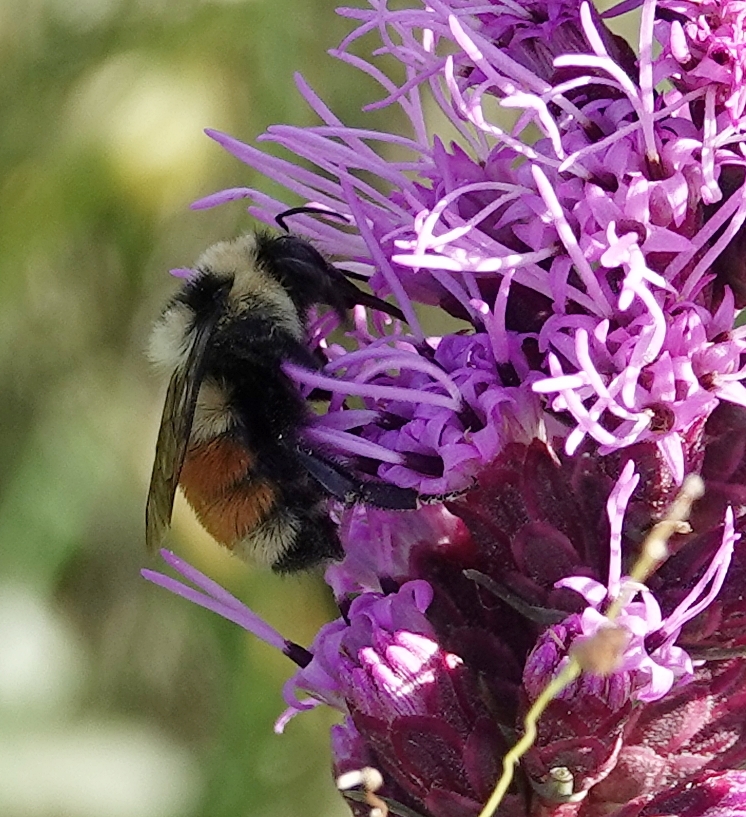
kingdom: Animalia
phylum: Arthropoda
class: Insecta
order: Hymenoptera
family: Apidae
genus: Bombus
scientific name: Bombus huntii
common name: Hunt bumble bee
